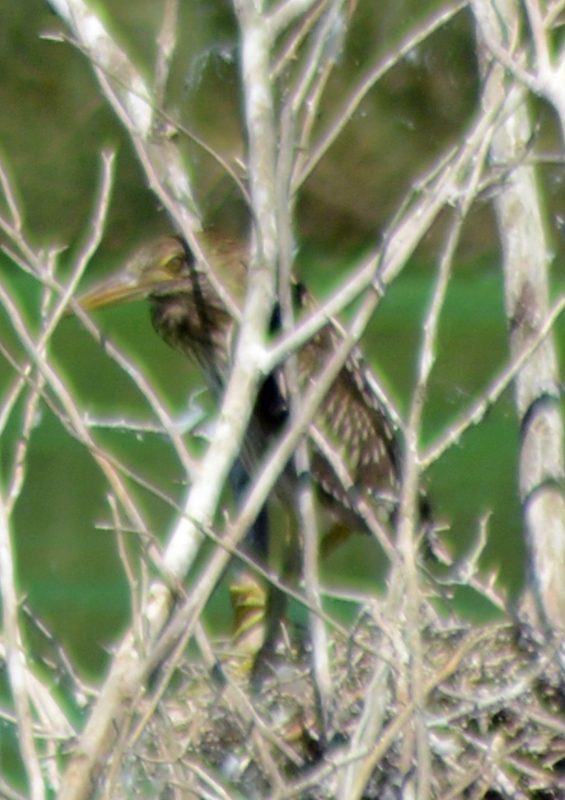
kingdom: Animalia
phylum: Chordata
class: Aves
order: Pelecaniformes
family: Ardeidae
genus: Nycticorax
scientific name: Nycticorax nycticorax
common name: Black-crowned night heron
